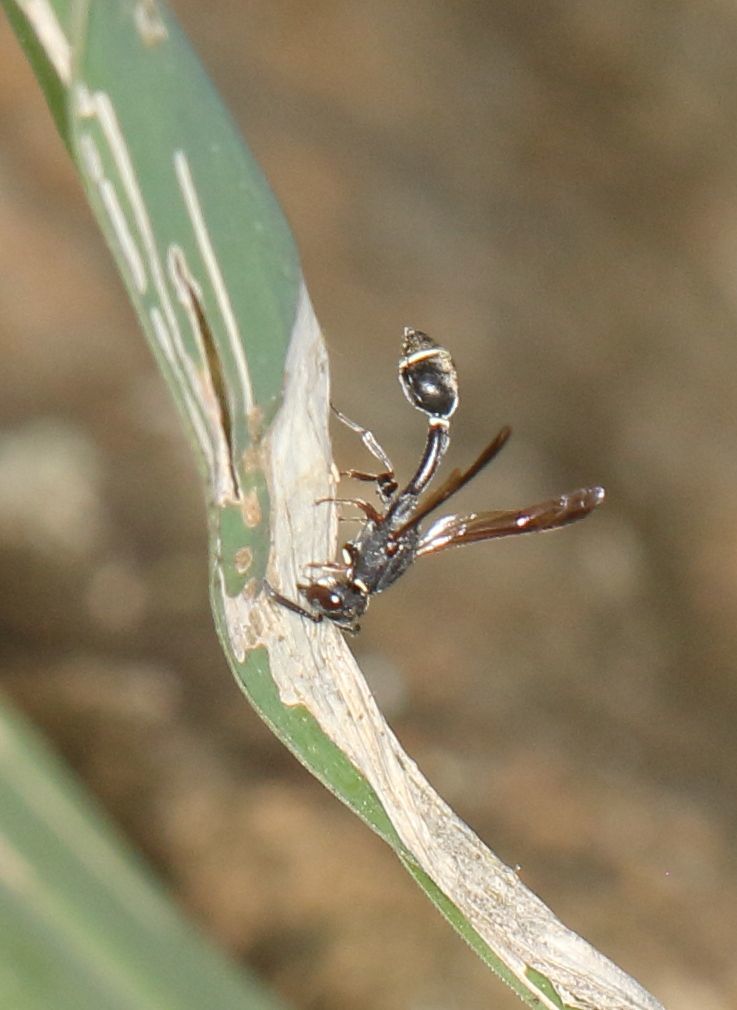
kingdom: Animalia
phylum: Arthropoda
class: Insecta
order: Hymenoptera
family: Eumenidae
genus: Micreumenes
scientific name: Micreumenes
